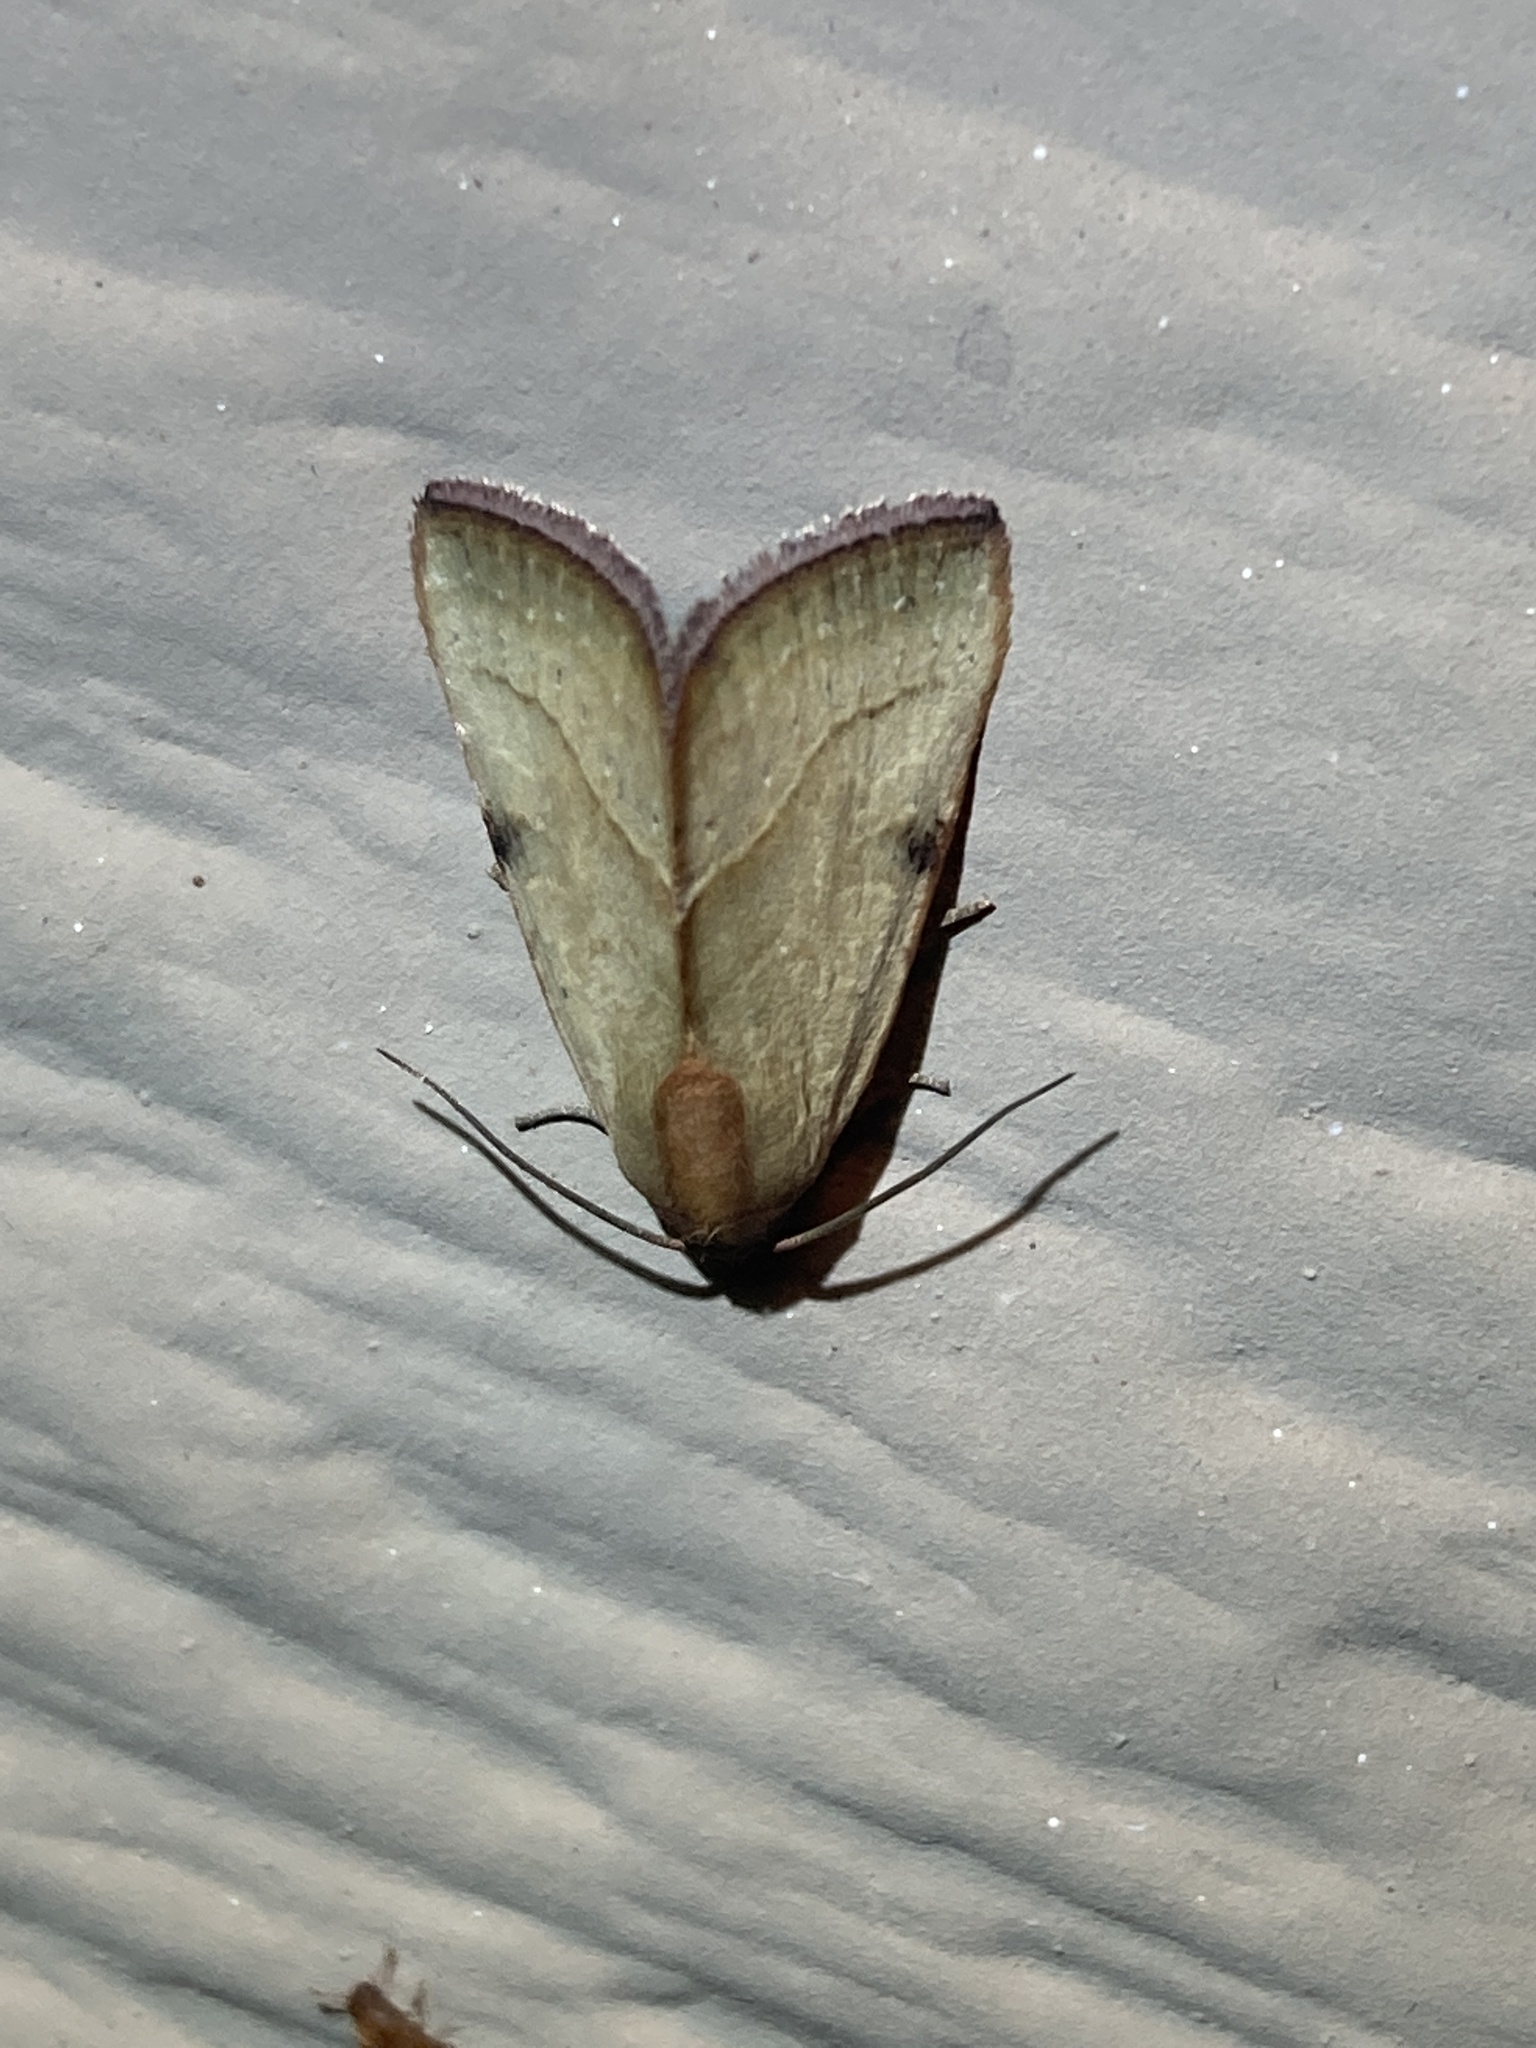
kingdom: Animalia
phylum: Arthropoda
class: Insecta
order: Lepidoptera
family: Noctuidae
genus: Galgula
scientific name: Galgula partita
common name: Wedgeling
